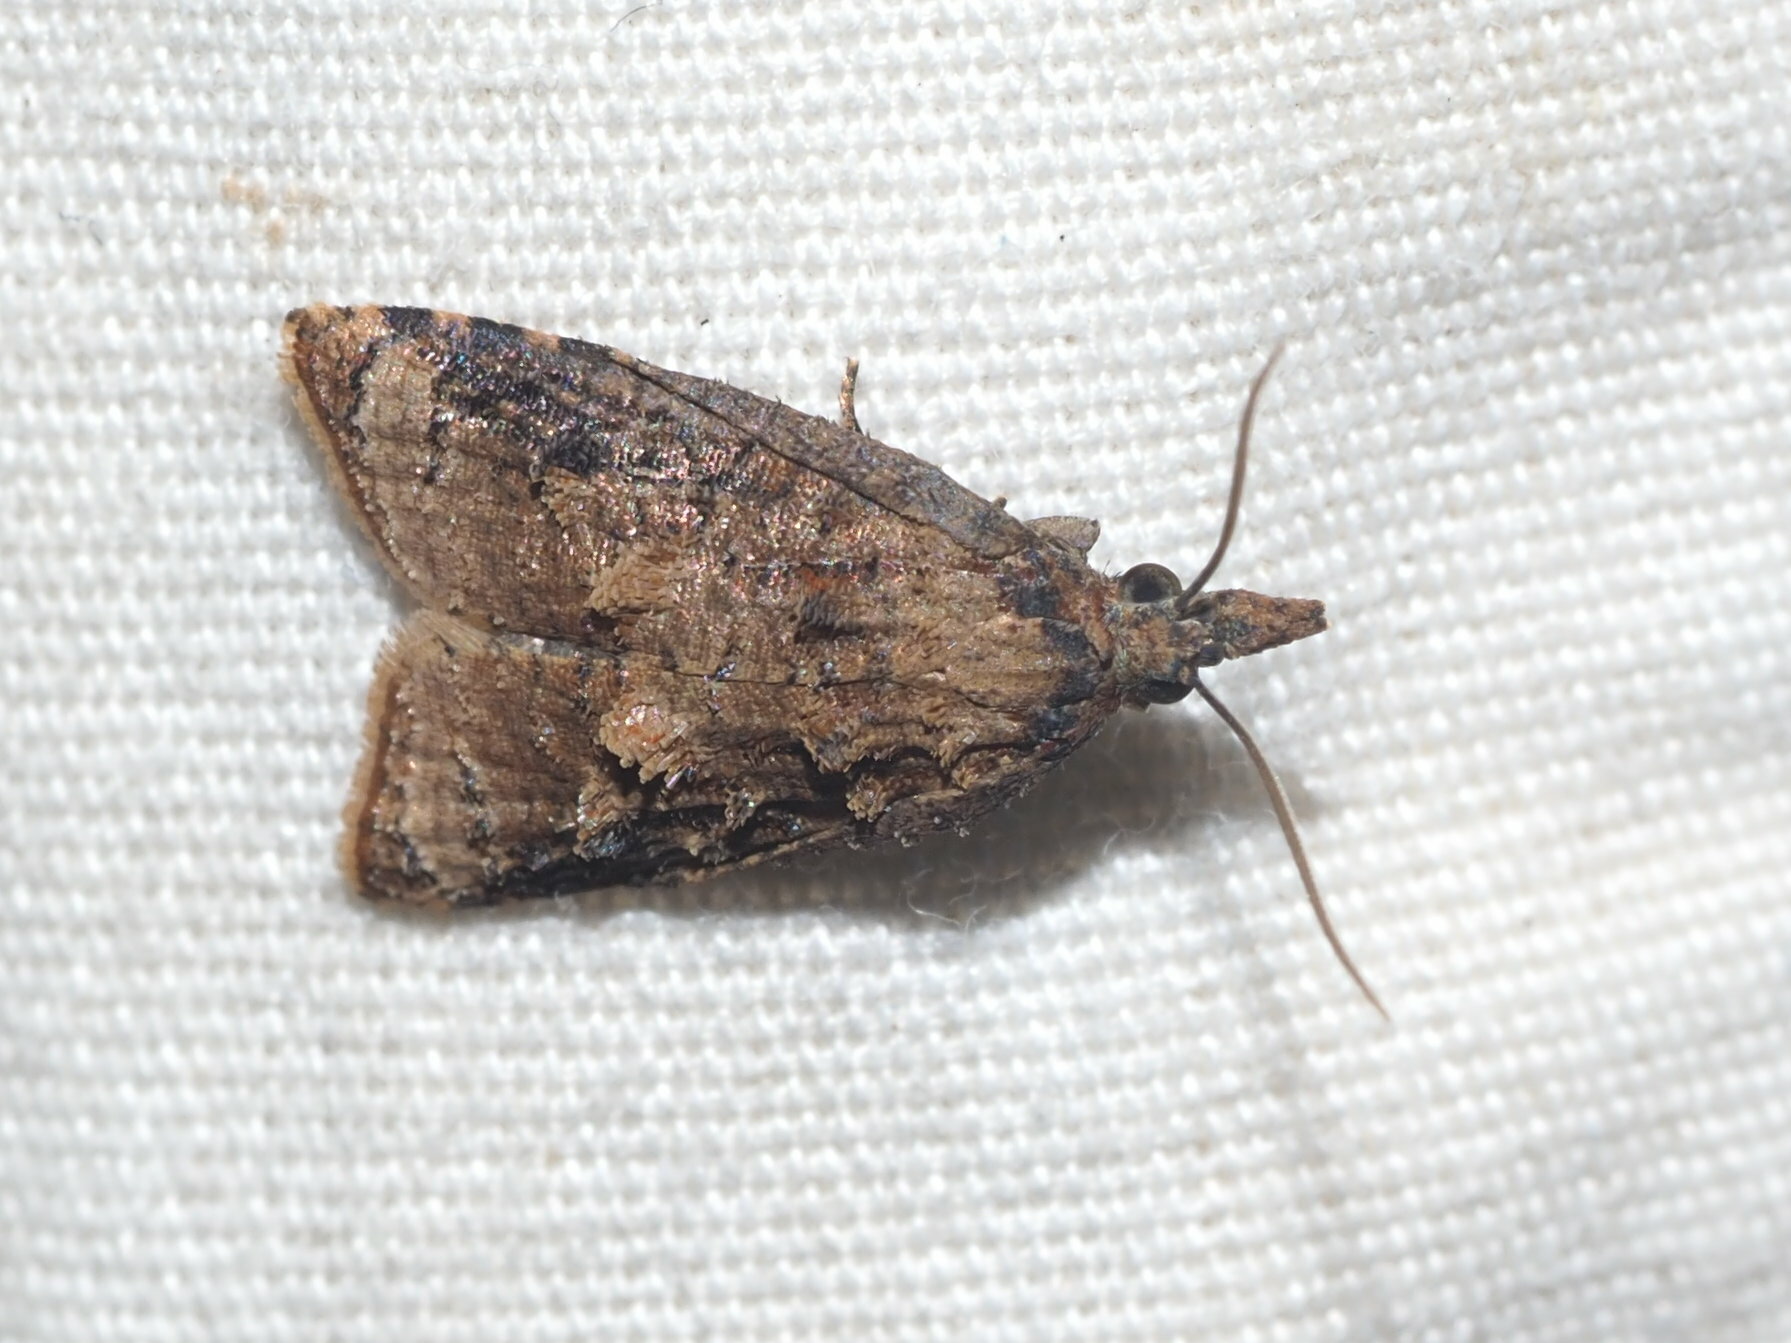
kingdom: Animalia
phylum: Arthropoda
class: Insecta
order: Lepidoptera
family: Tortricidae
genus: Platynota
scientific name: Platynota rostrana
